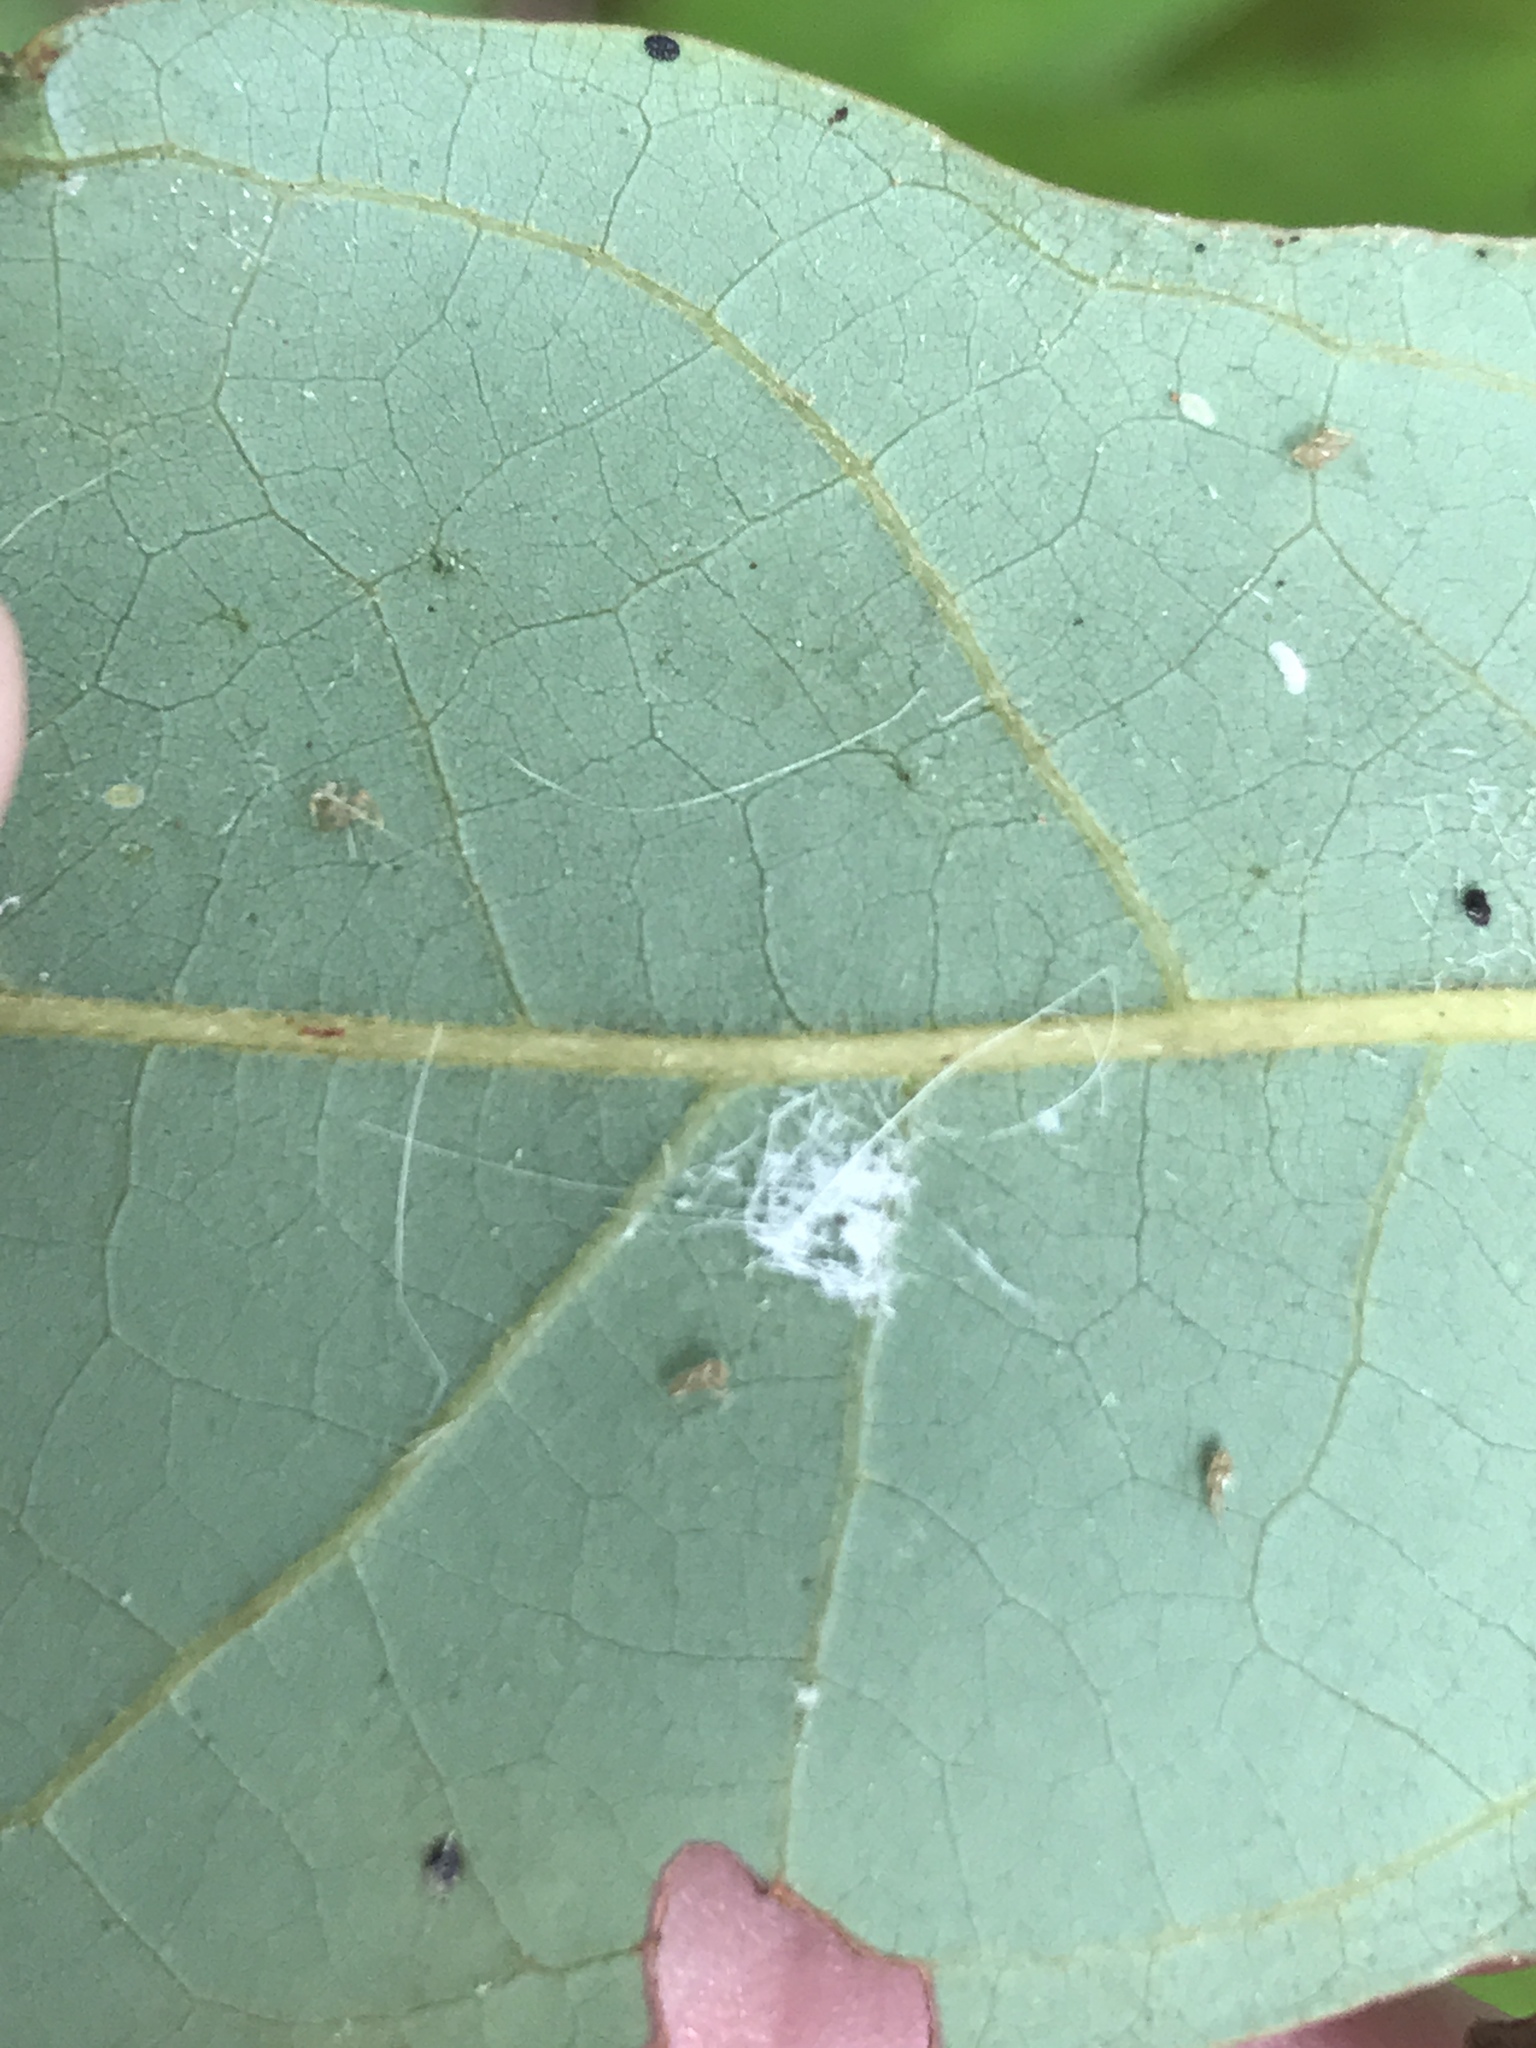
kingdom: Plantae
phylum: Tracheophyta
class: Magnoliopsida
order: Laurales
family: Lauraceae
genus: Persea
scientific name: Persea palustris
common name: Swampbay
